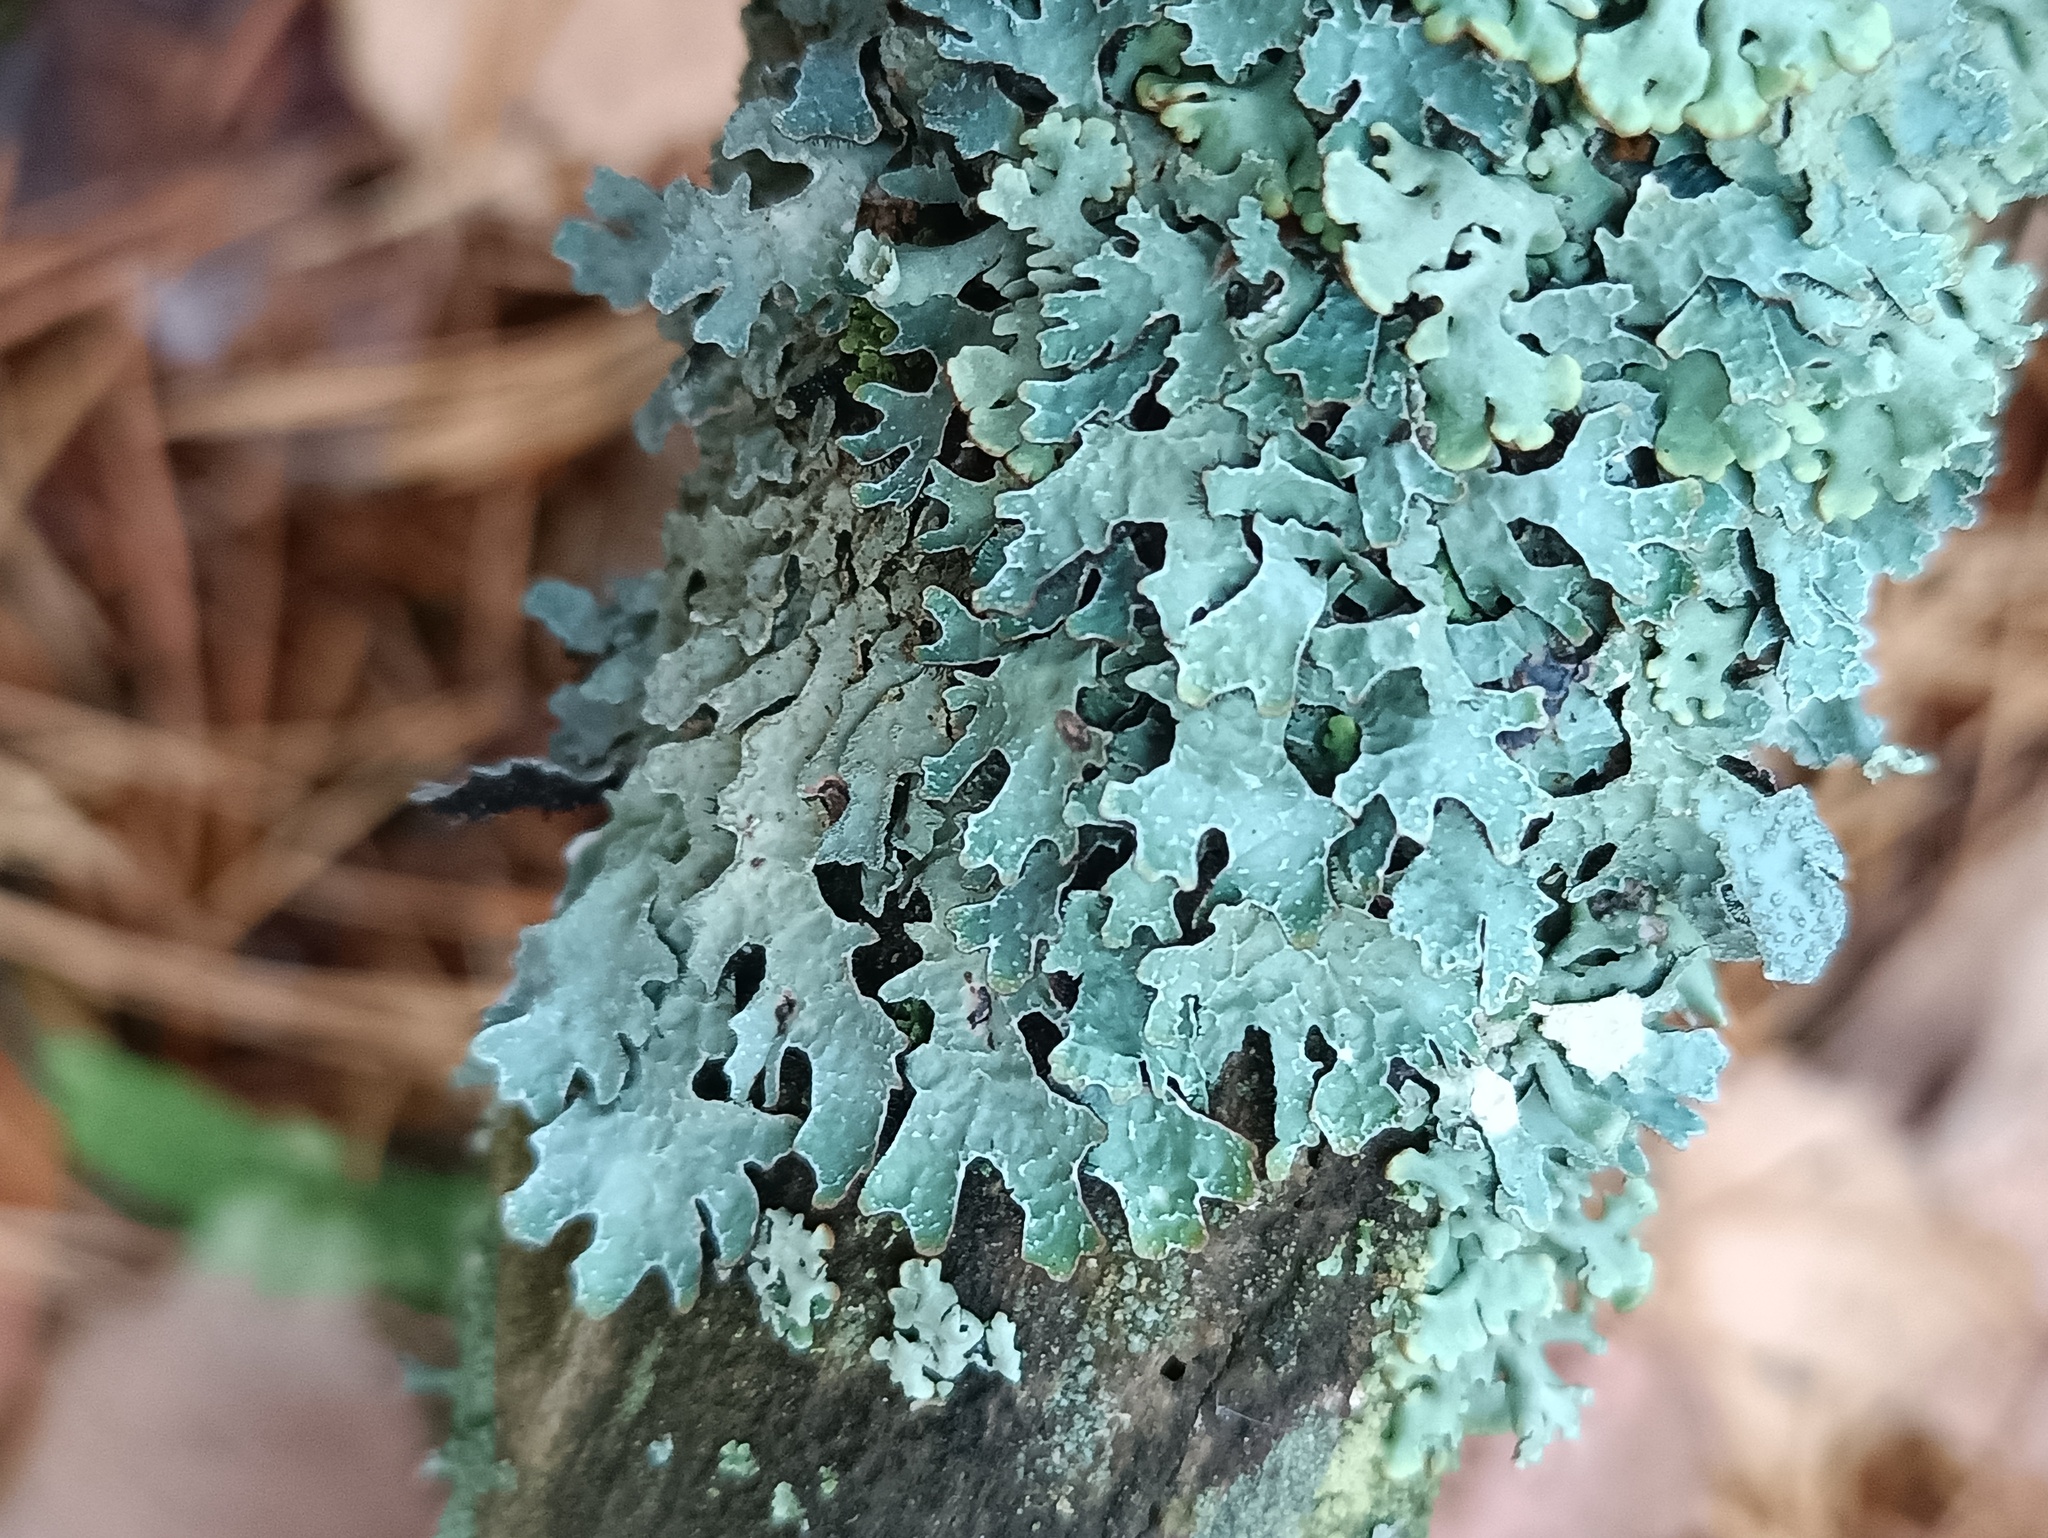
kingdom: Fungi
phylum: Ascomycota
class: Lecanoromycetes
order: Lecanorales
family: Parmeliaceae
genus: Parmelia
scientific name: Parmelia sulcata
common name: Netted shield lichen
